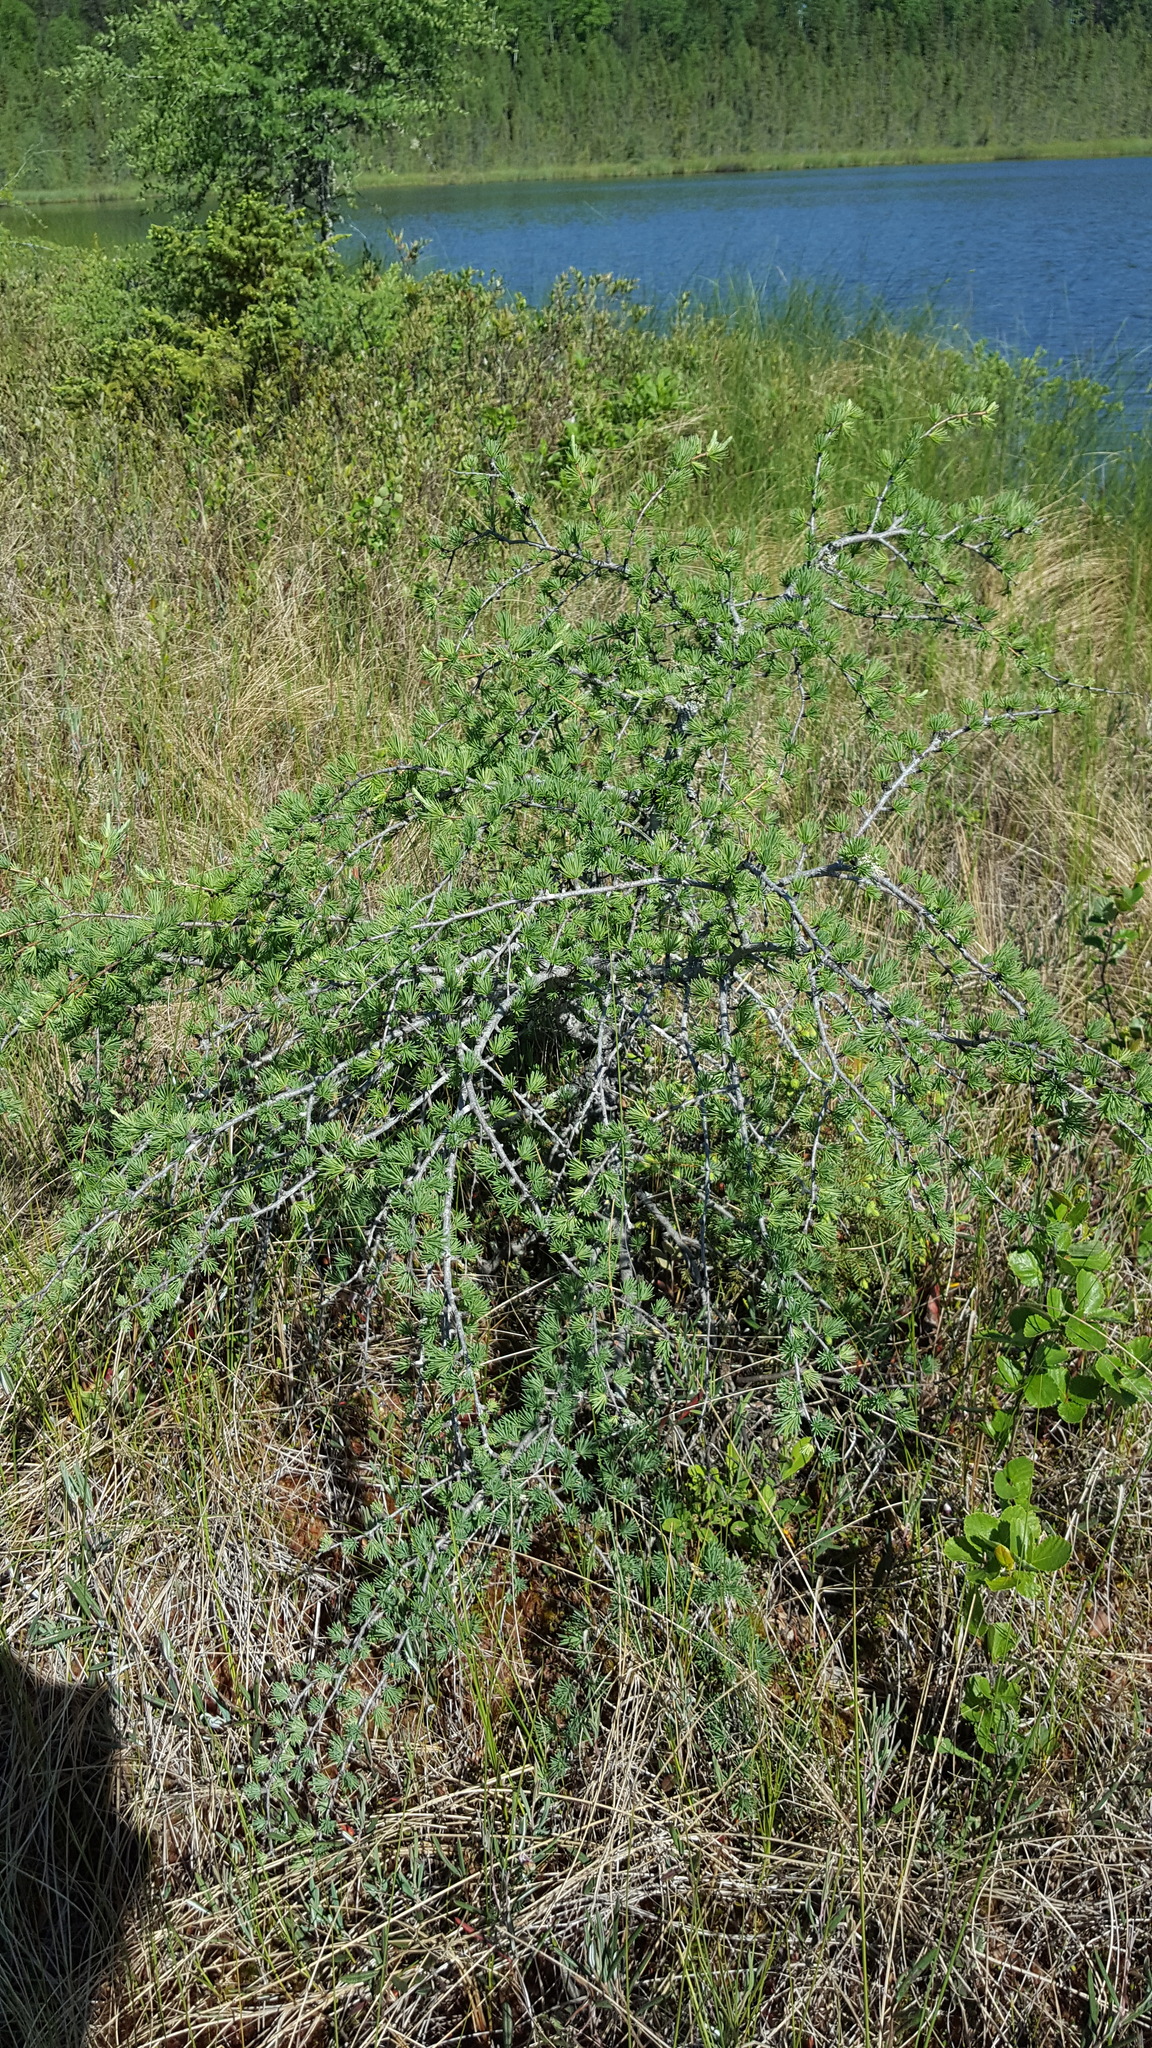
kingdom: Plantae
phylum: Tracheophyta
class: Pinopsida
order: Pinales
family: Pinaceae
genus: Larix
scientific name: Larix laricina
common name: American larch
